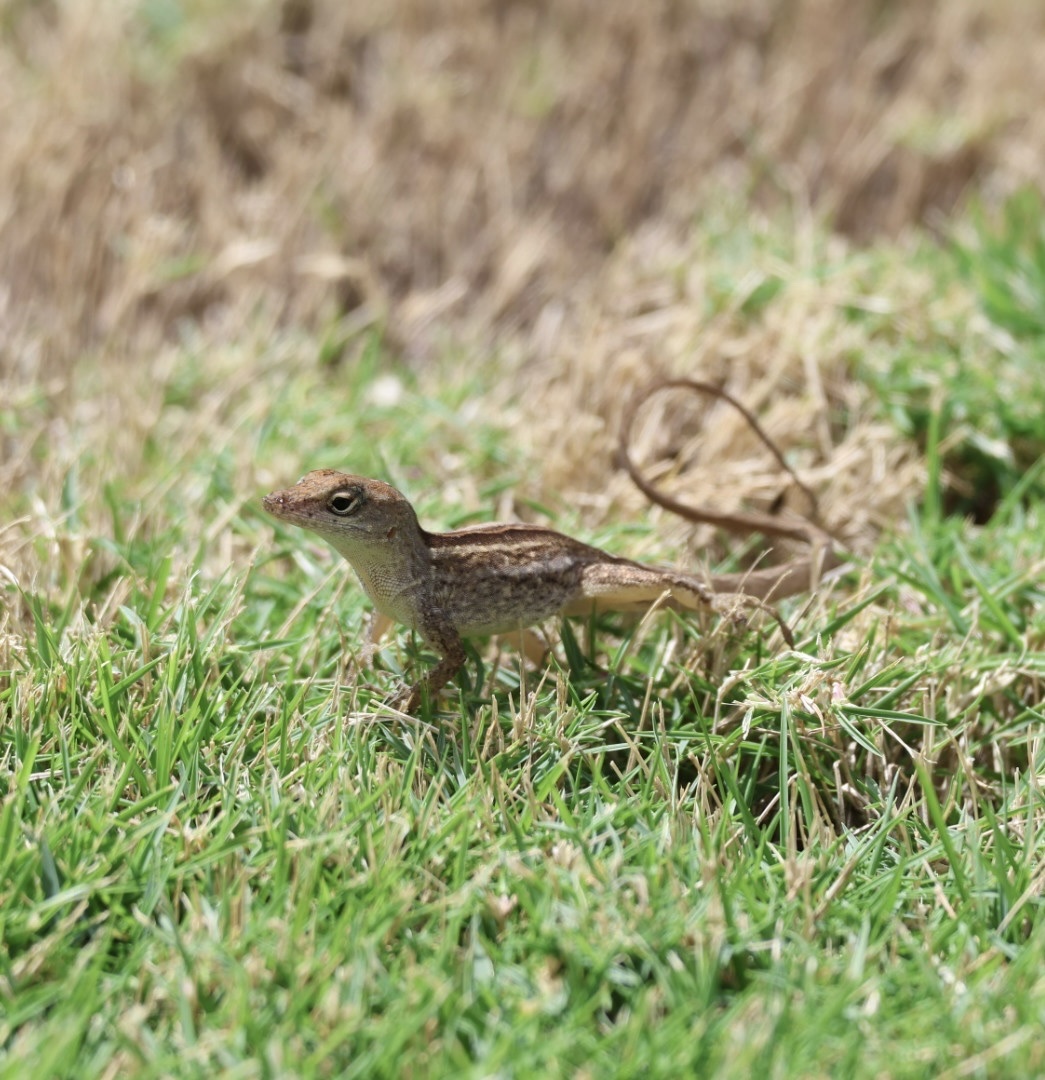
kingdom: Animalia
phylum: Chordata
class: Squamata
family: Dactyloidae
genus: Anolis
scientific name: Anolis sagrei
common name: Brown anole
